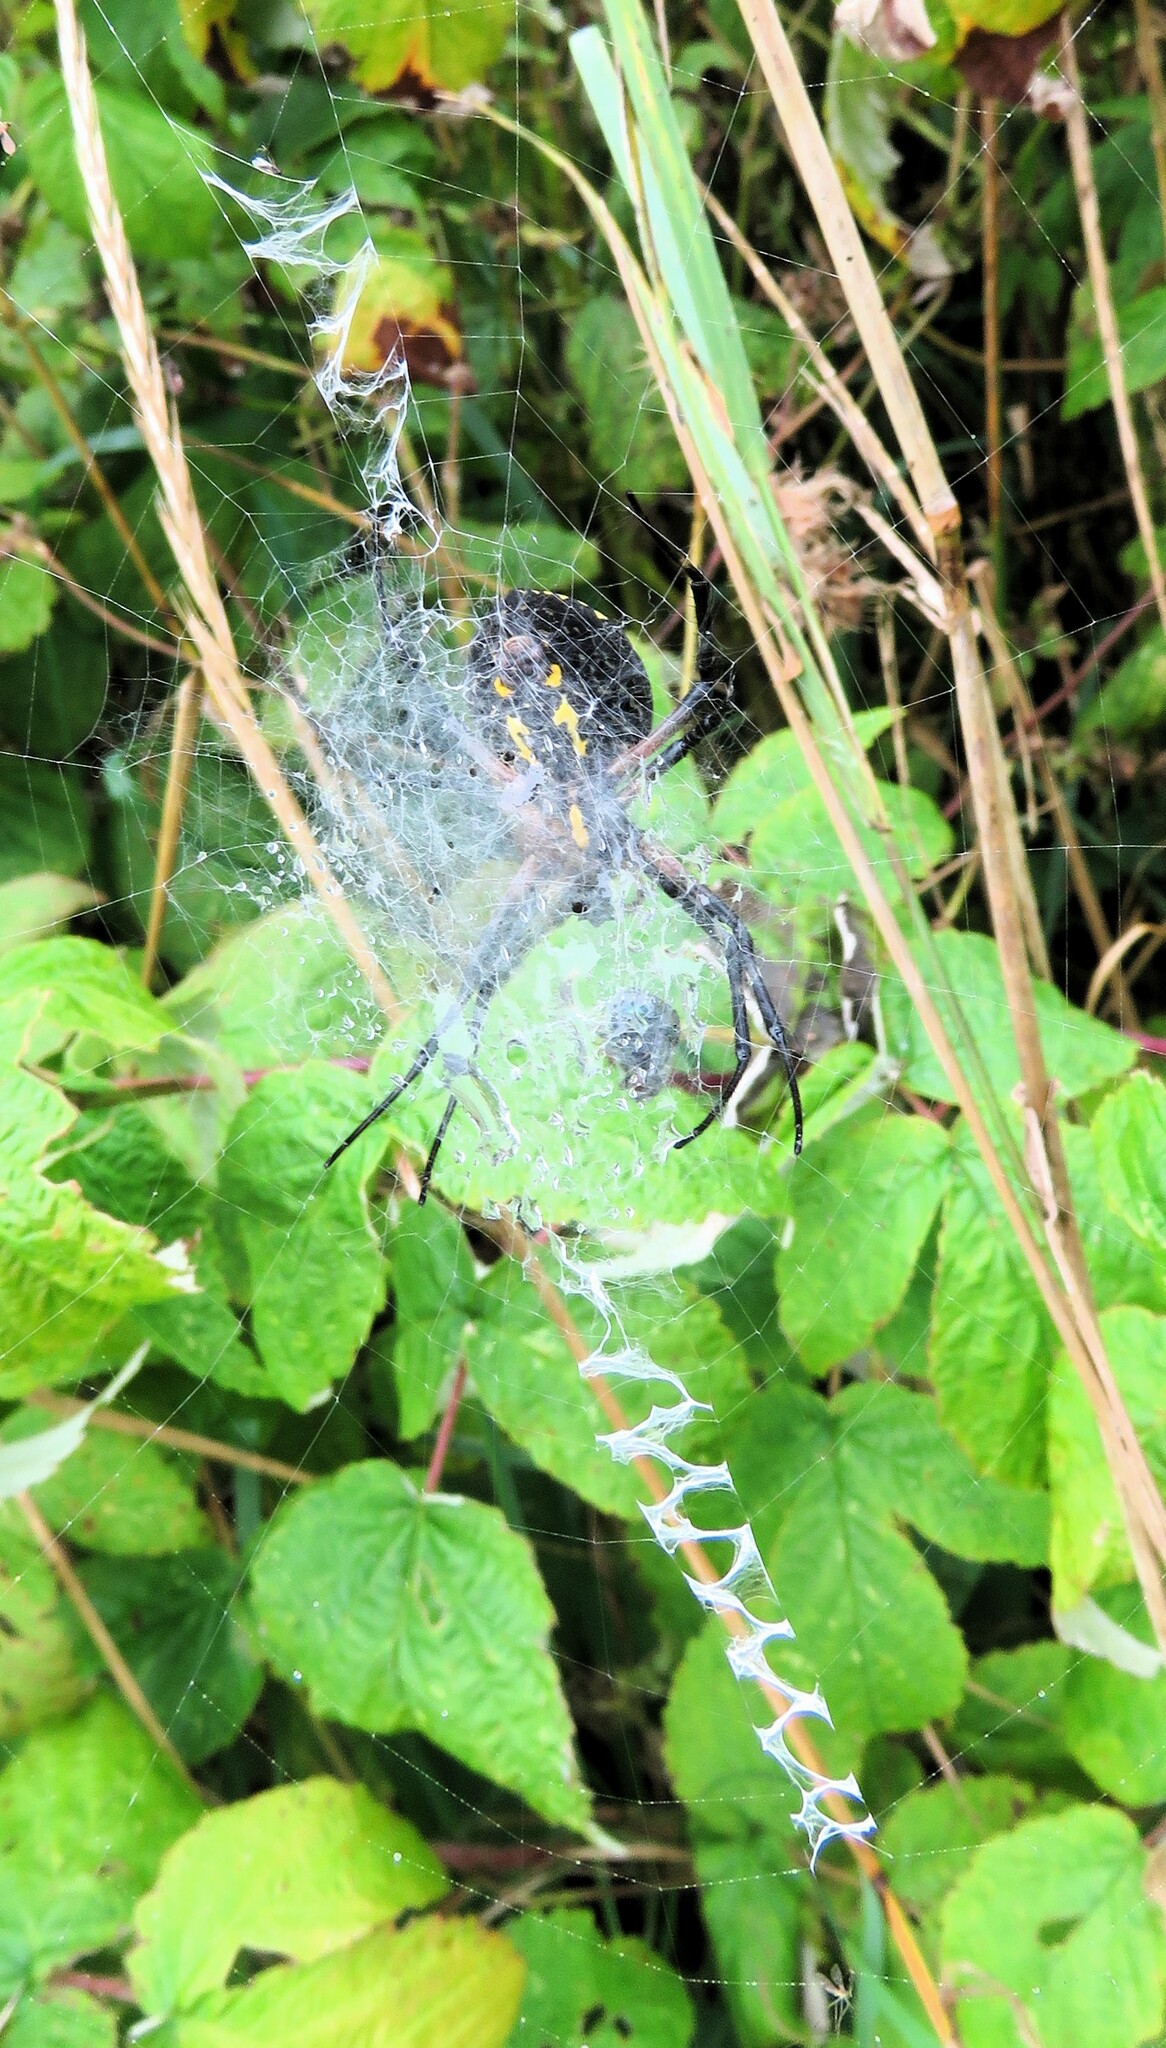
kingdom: Animalia
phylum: Arthropoda
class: Arachnida
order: Araneae
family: Araneidae
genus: Argiope
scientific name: Argiope aurantia
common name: Orb weavers
